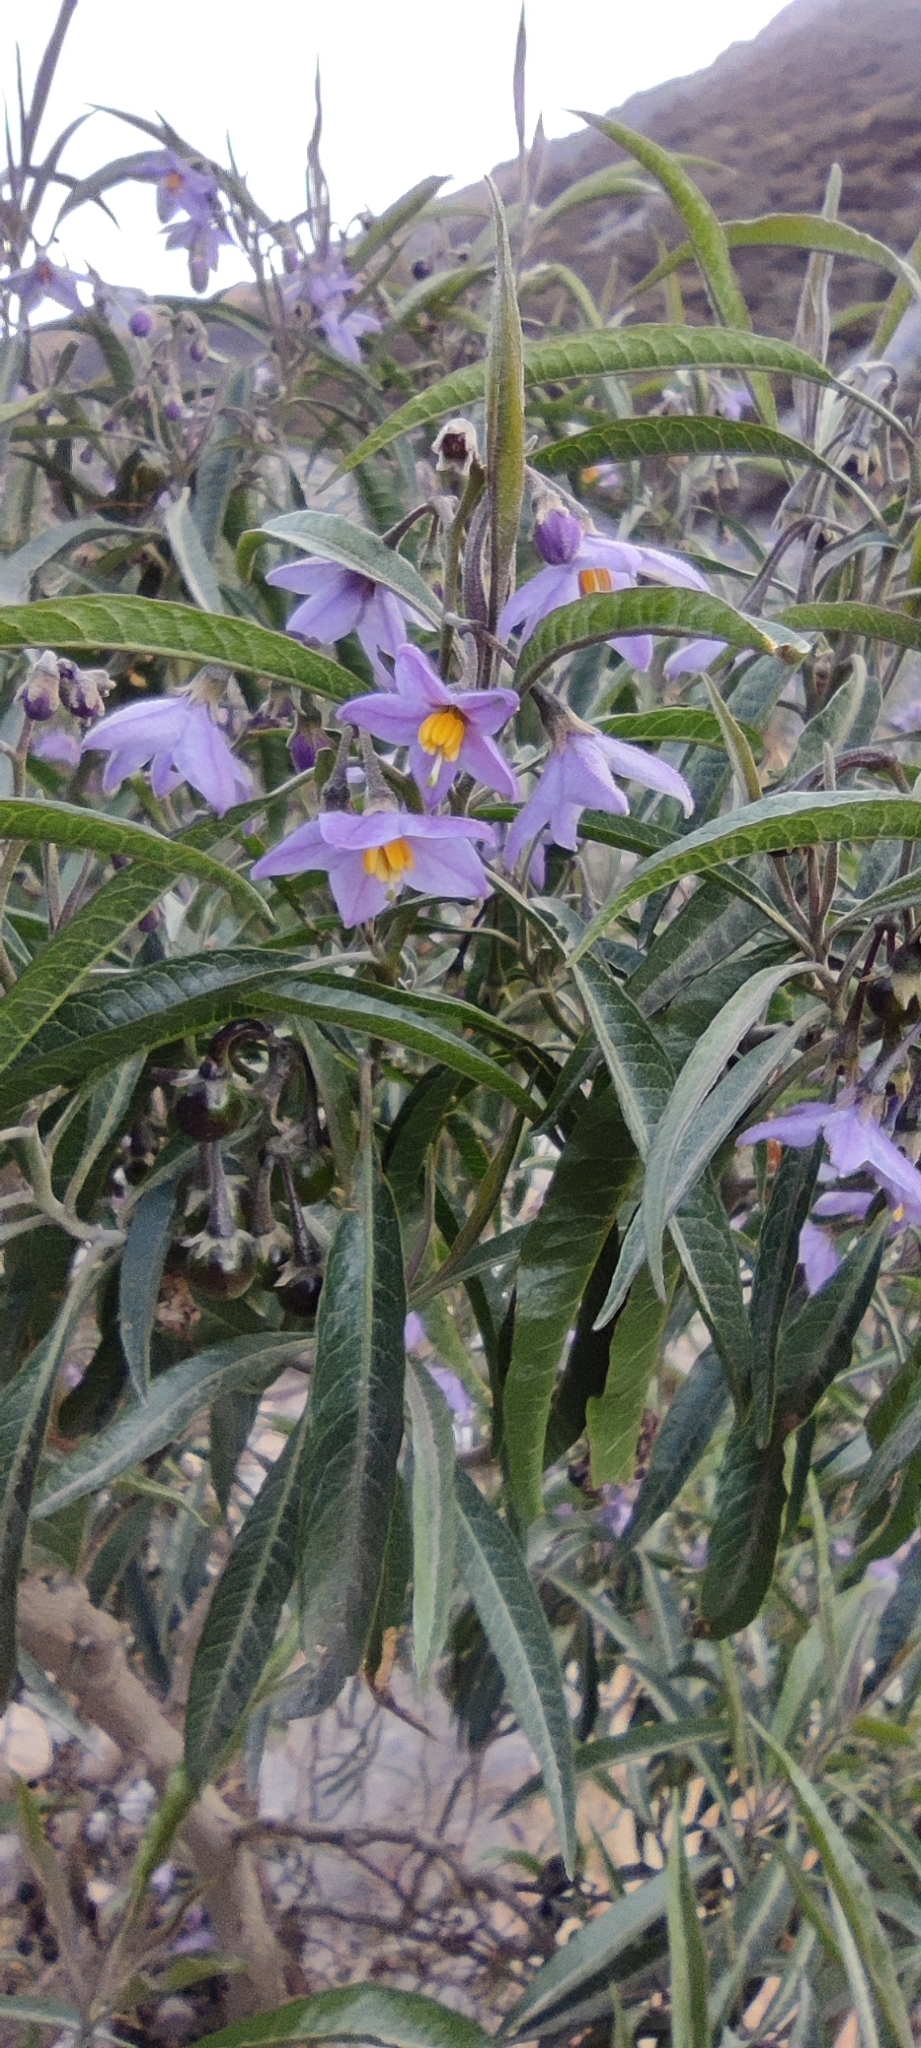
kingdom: Plantae
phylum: Tracheophyta
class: Magnoliopsida
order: Solanales
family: Solanaceae
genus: Solanum
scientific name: Solanum nitidum
